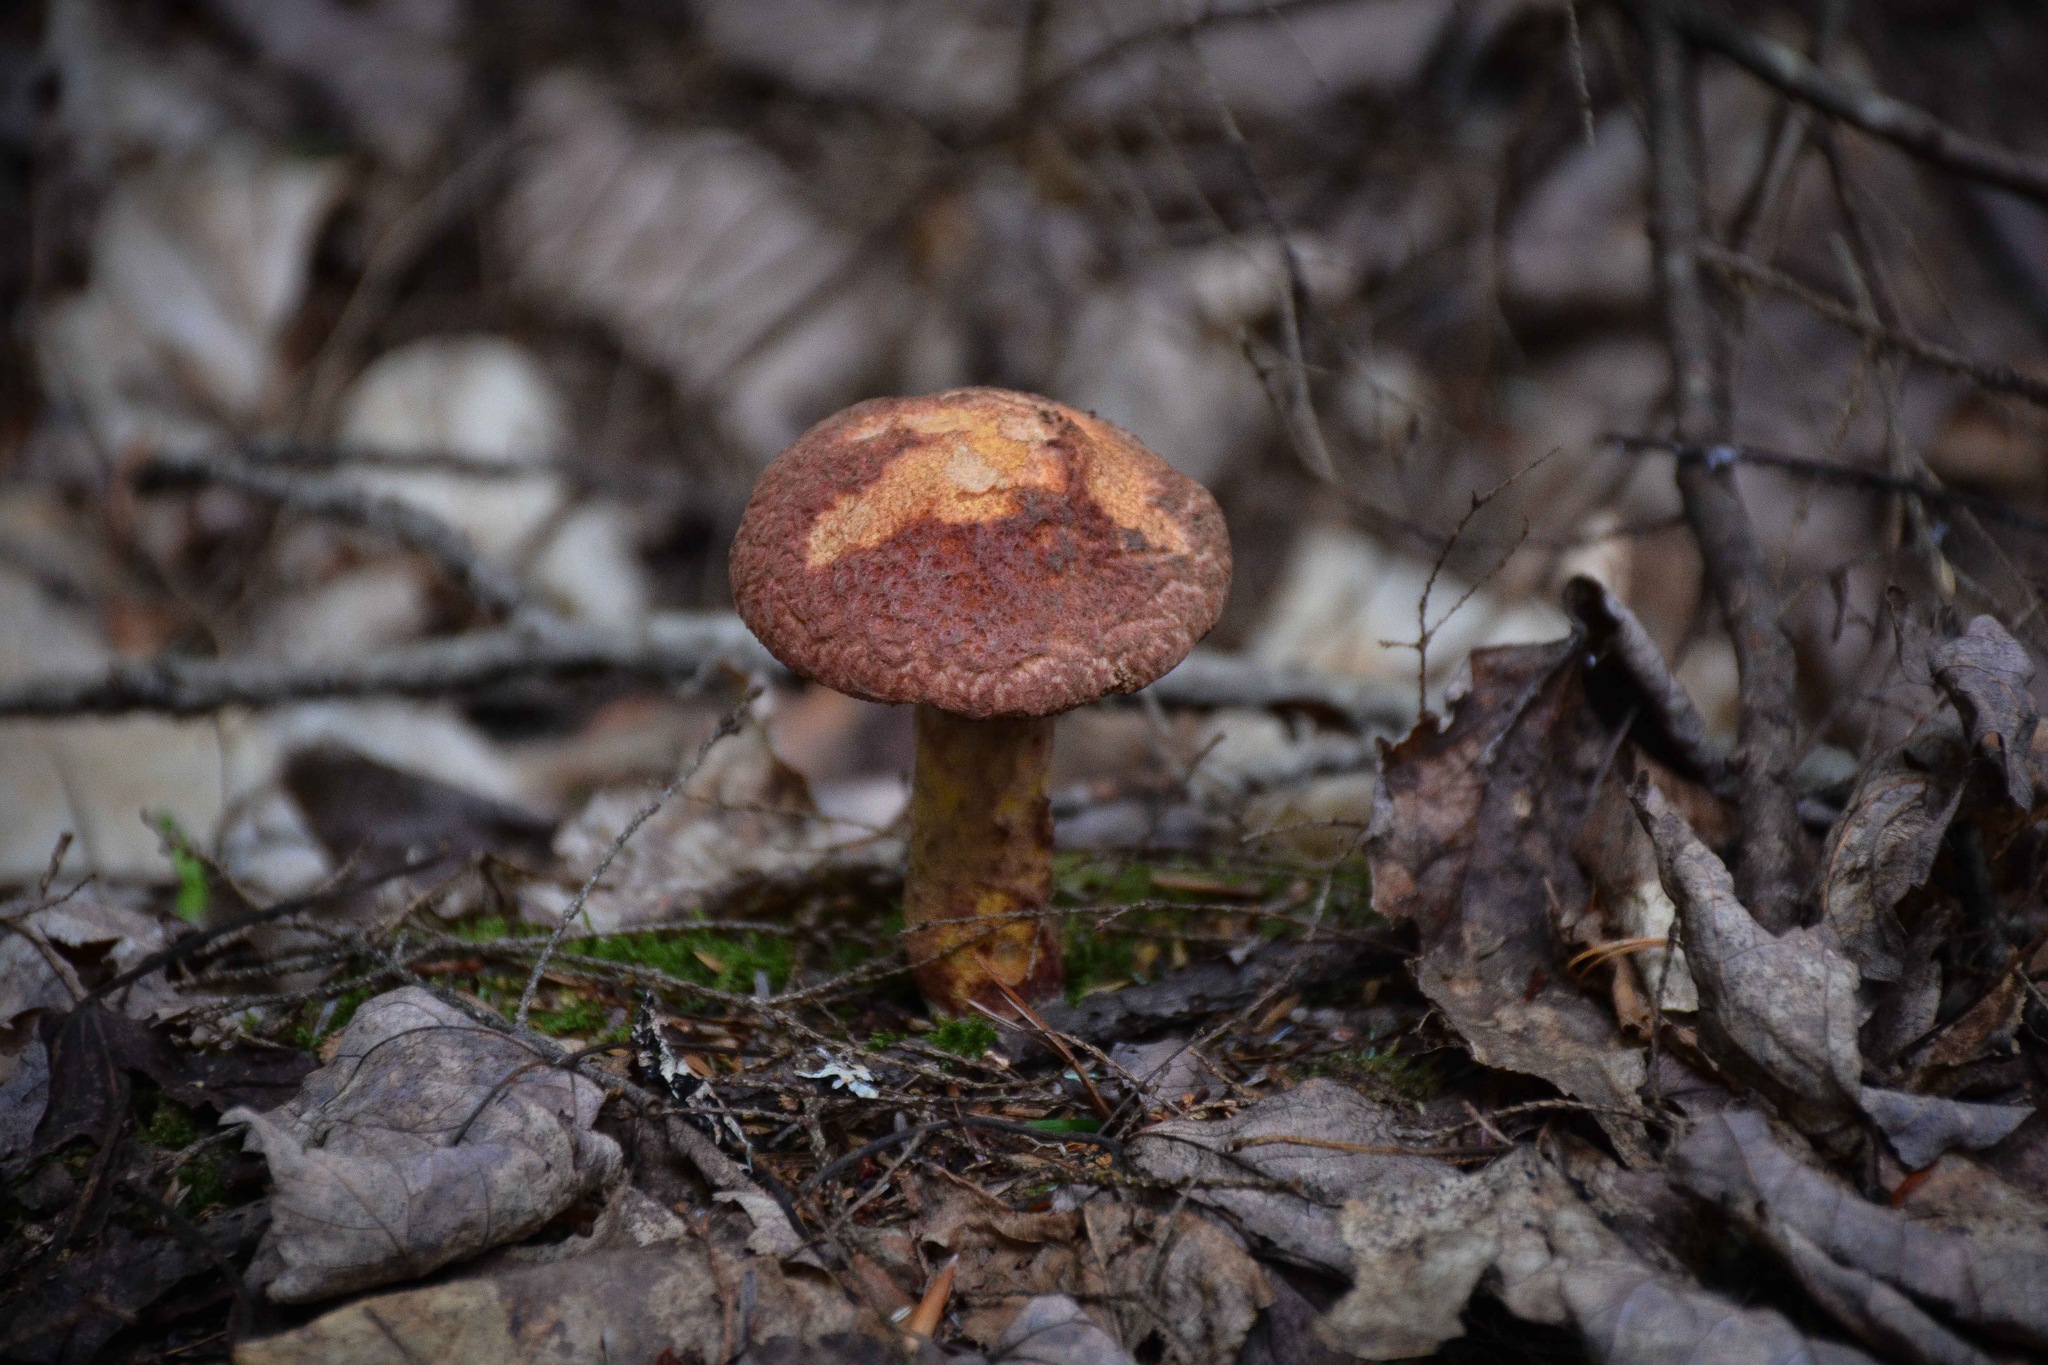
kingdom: Fungi
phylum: Basidiomycota
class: Agaricomycetes
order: Boletales
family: Suillaceae
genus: Suillus
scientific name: Suillus spraguei
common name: Painted suillus
